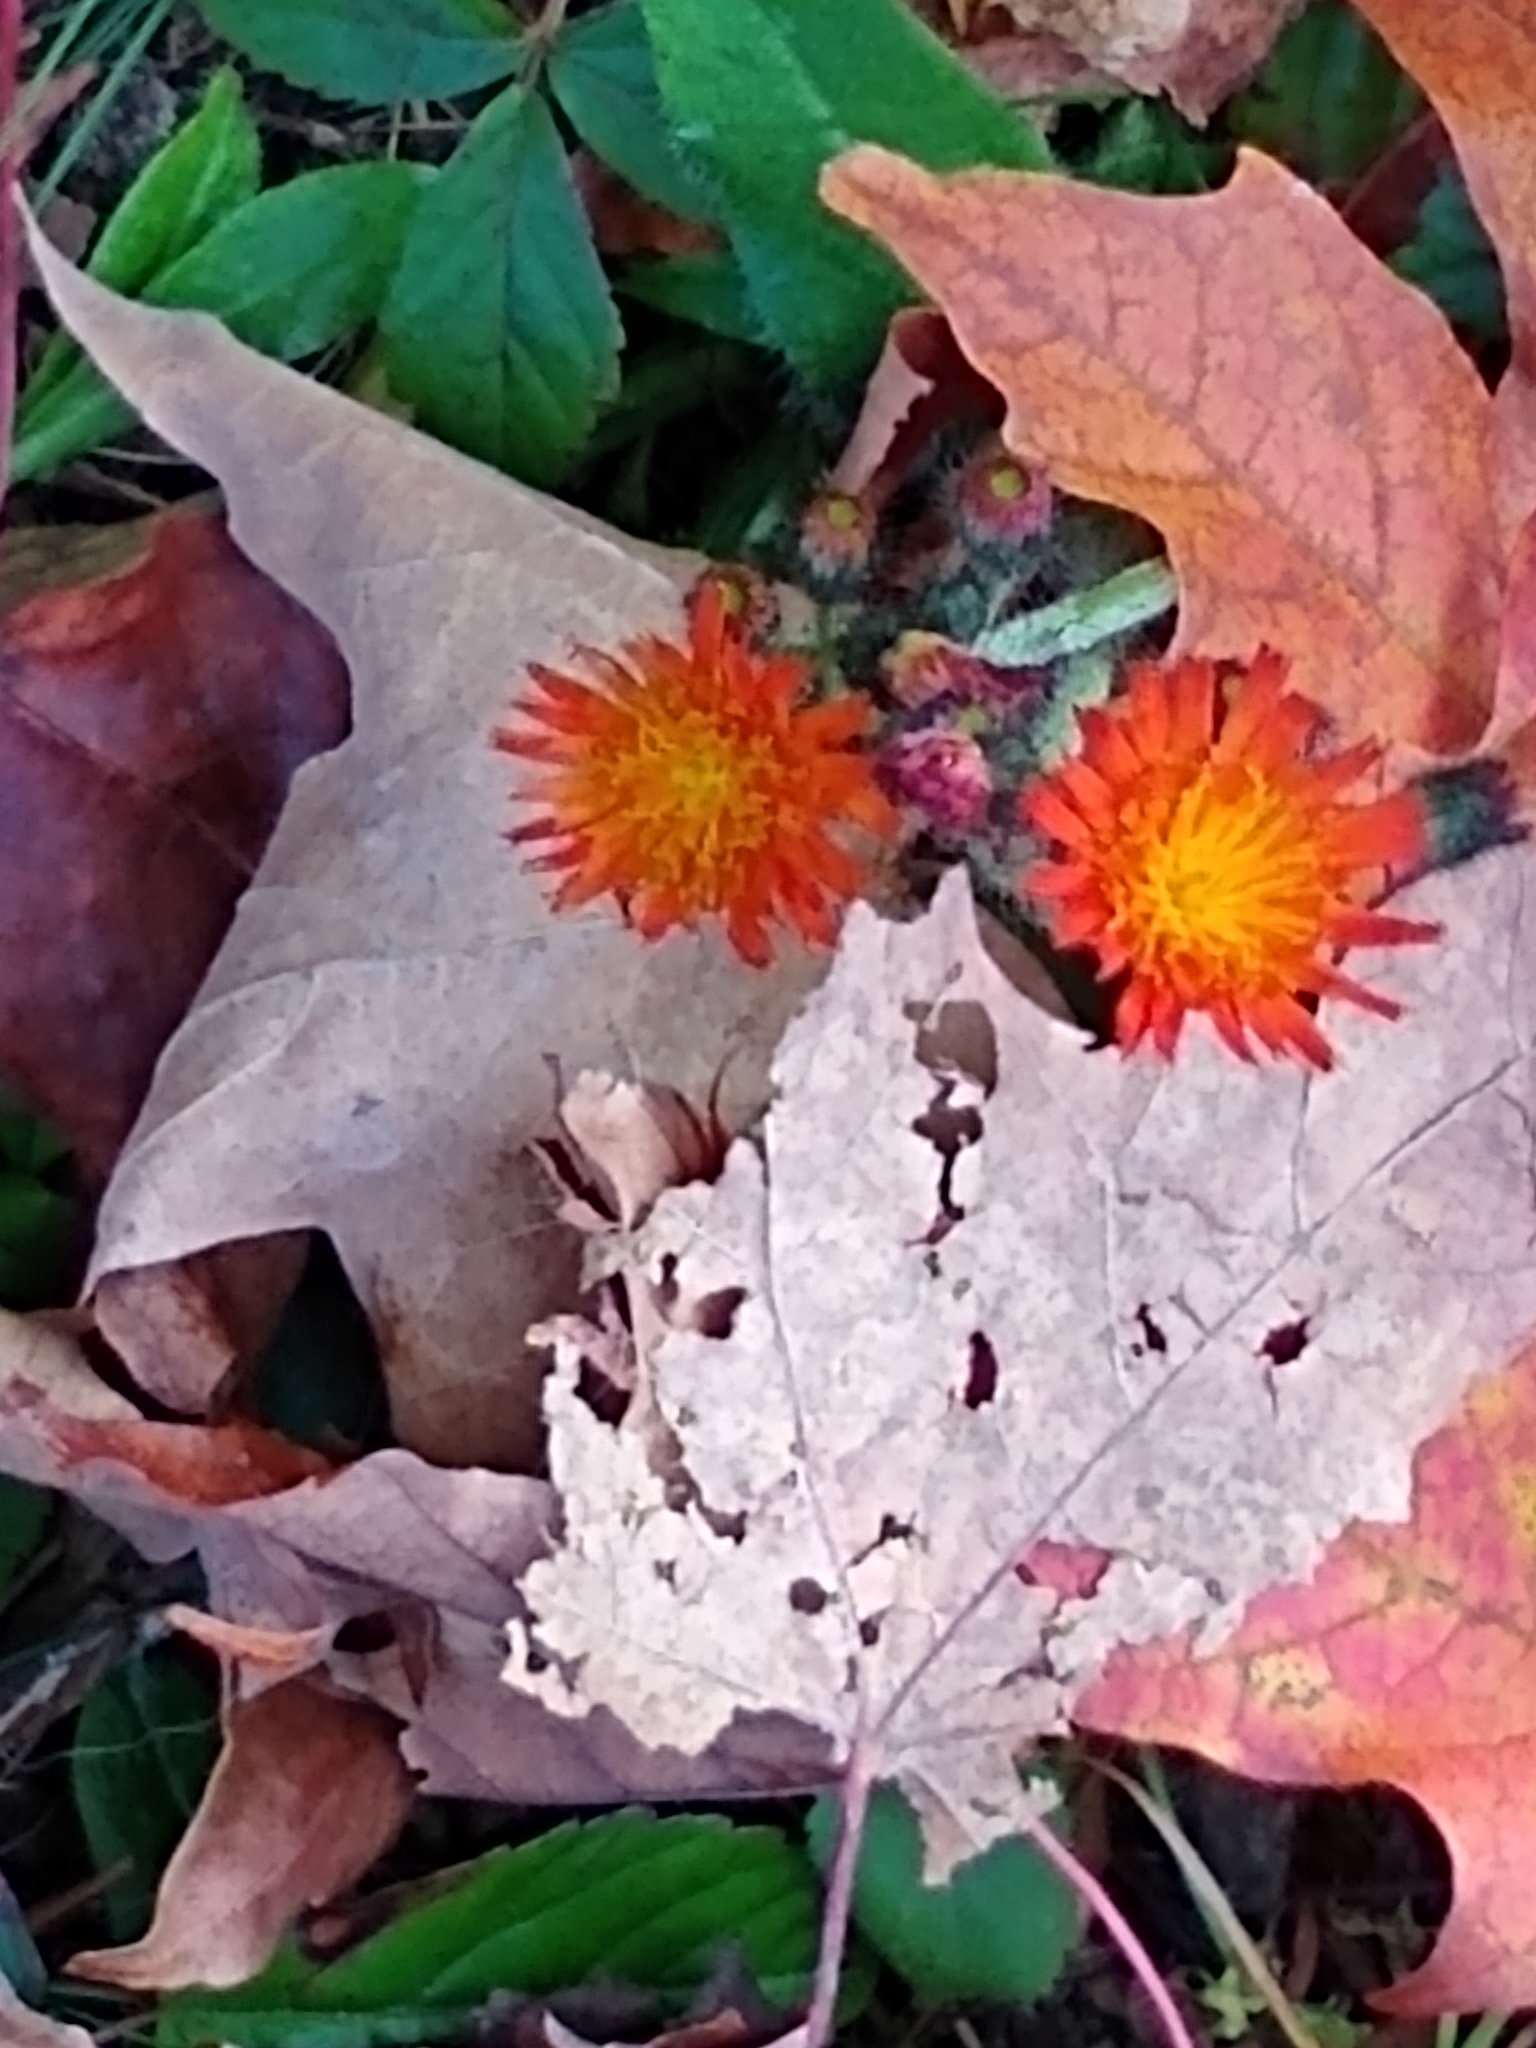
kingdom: Plantae
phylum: Tracheophyta
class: Magnoliopsida
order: Asterales
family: Asteraceae
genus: Pilosella
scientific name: Pilosella aurantiaca
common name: Fox-and-cubs
